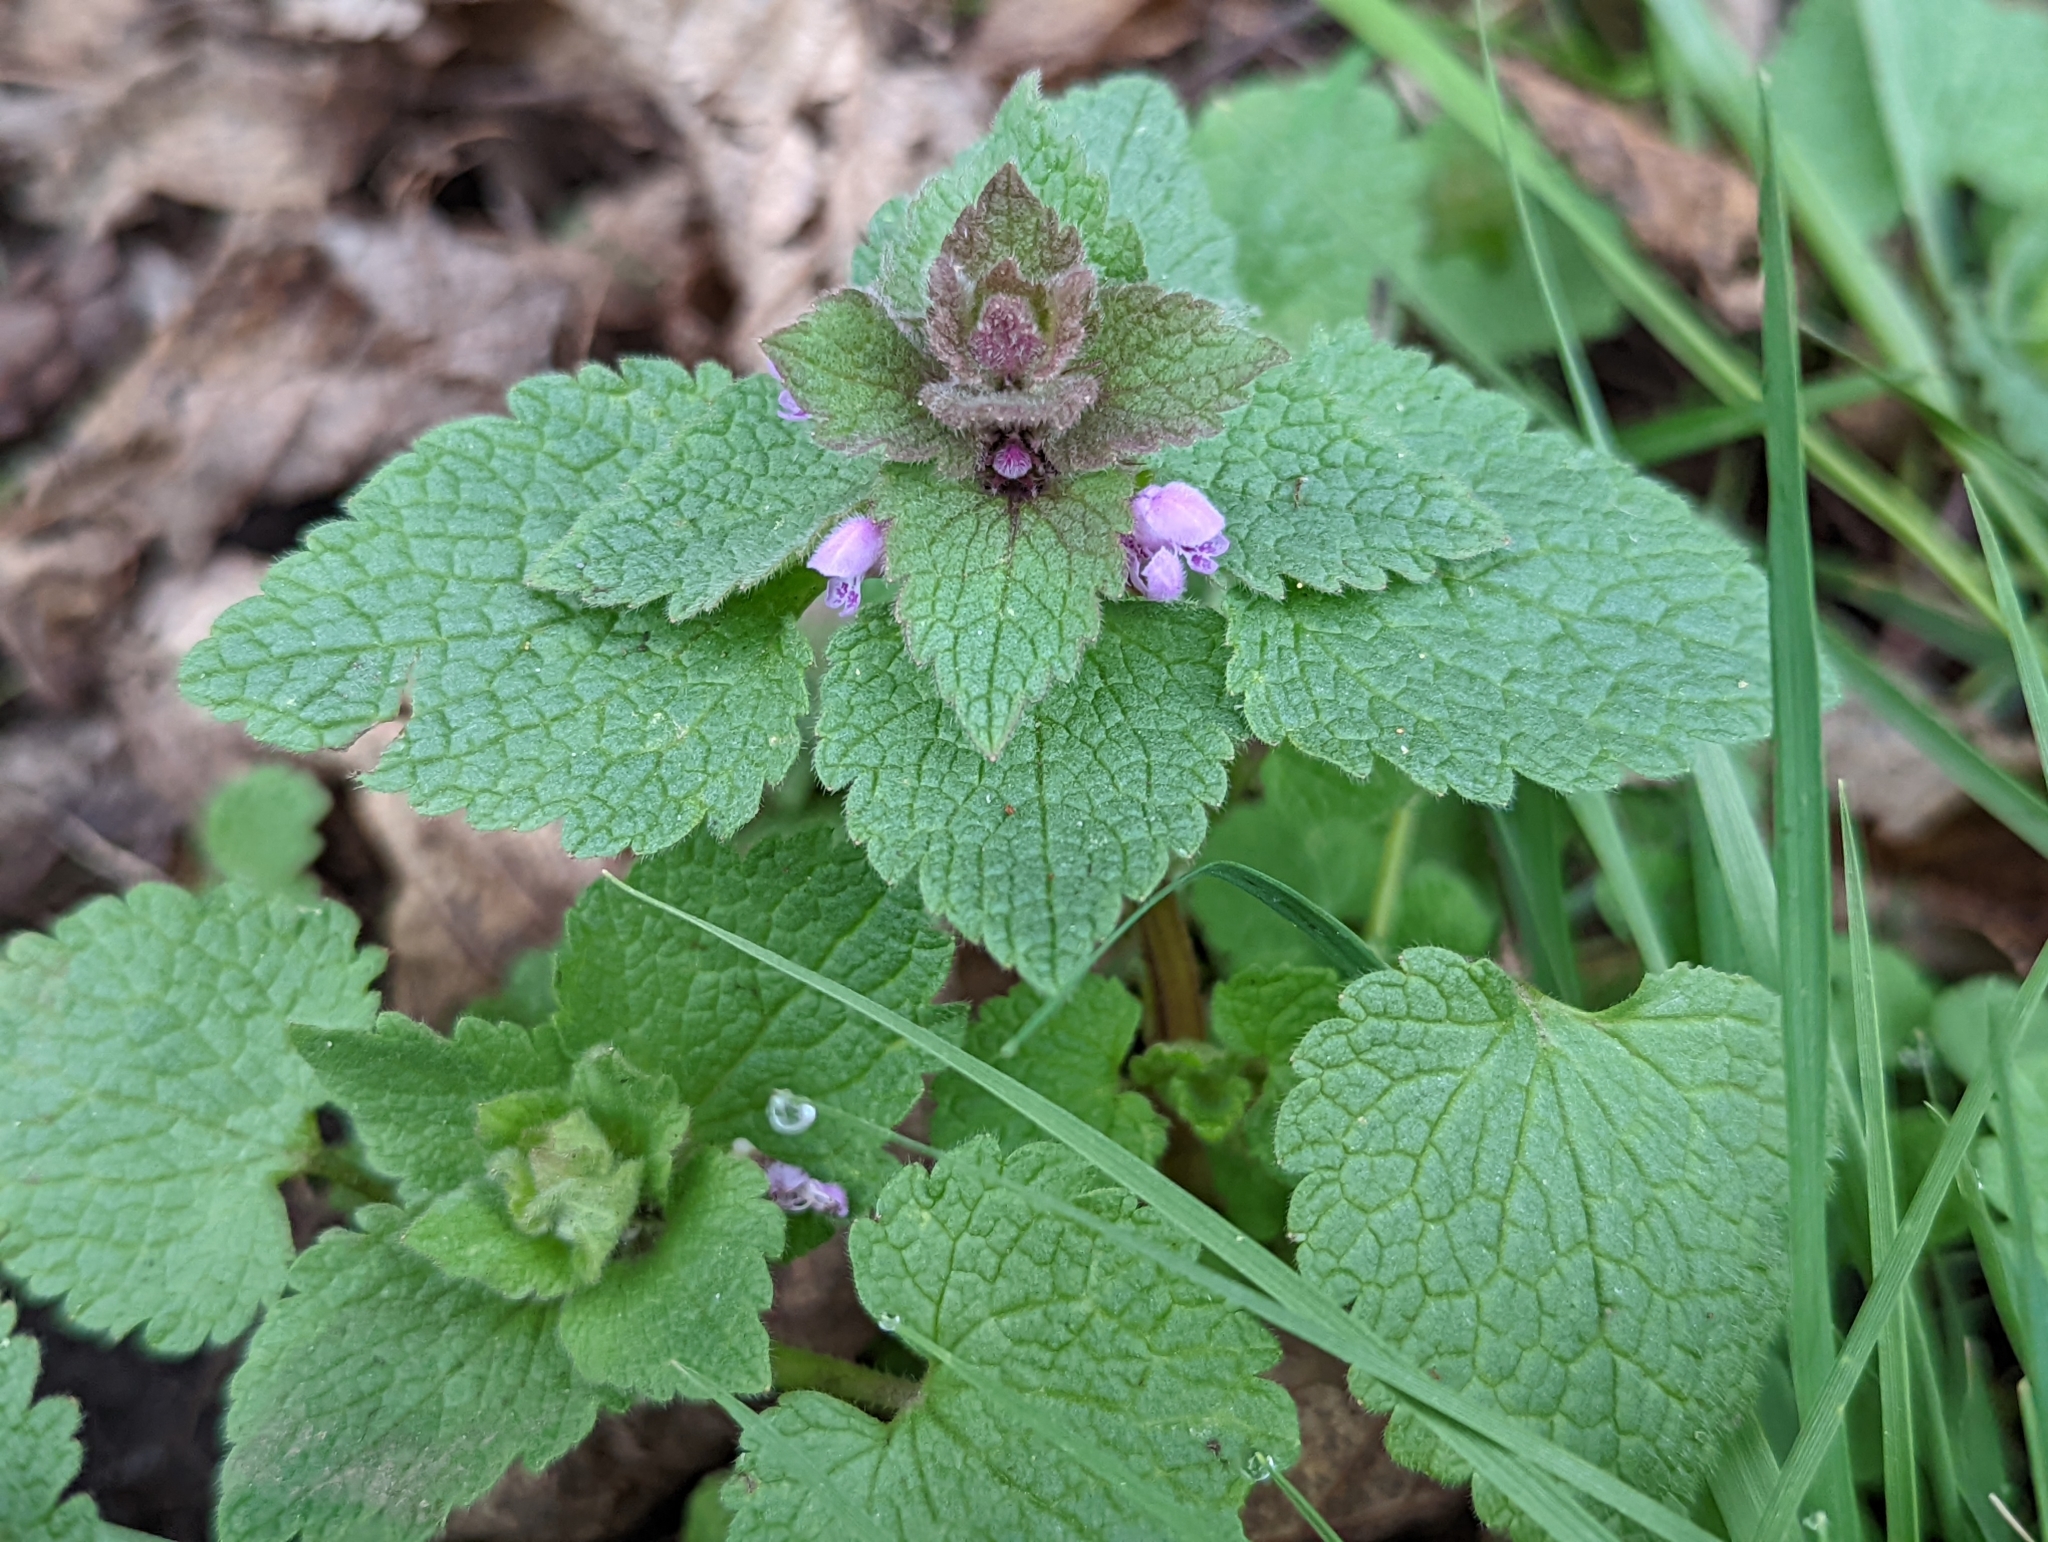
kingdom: Plantae
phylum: Tracheophyta
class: Magnoliopsida
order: Lamiales
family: Lamiaceae
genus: Lamium
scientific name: Lamium purpureum
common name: Red dead-nettle
